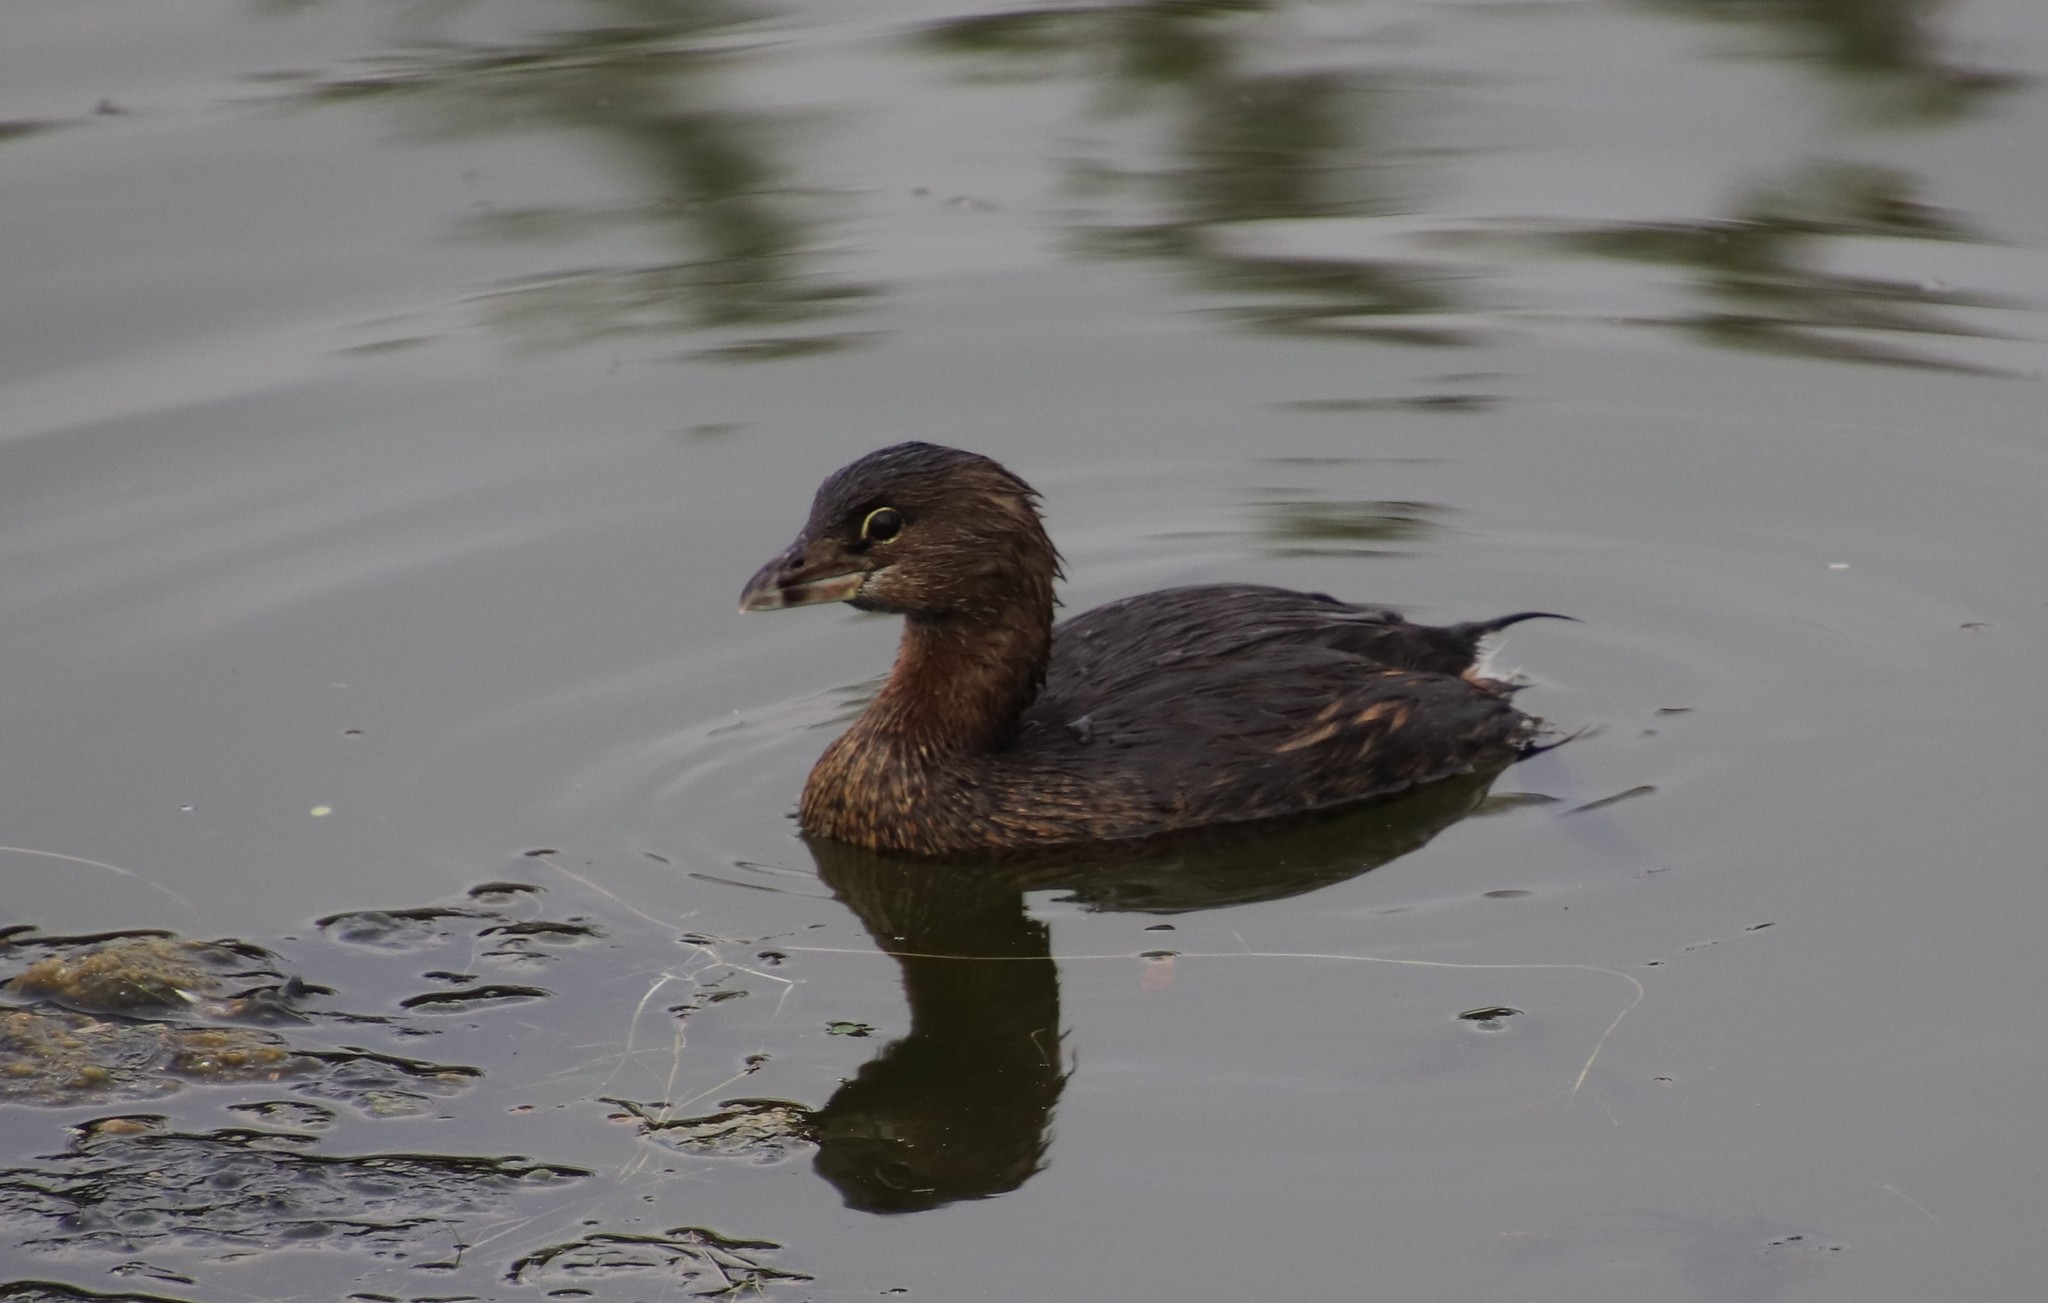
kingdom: Animalia
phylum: Chordata
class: Aves
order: Podicipediformes
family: Podicipedidae
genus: Podilymbus
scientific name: Podilymbus podiceps
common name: Pied-billed grebe
